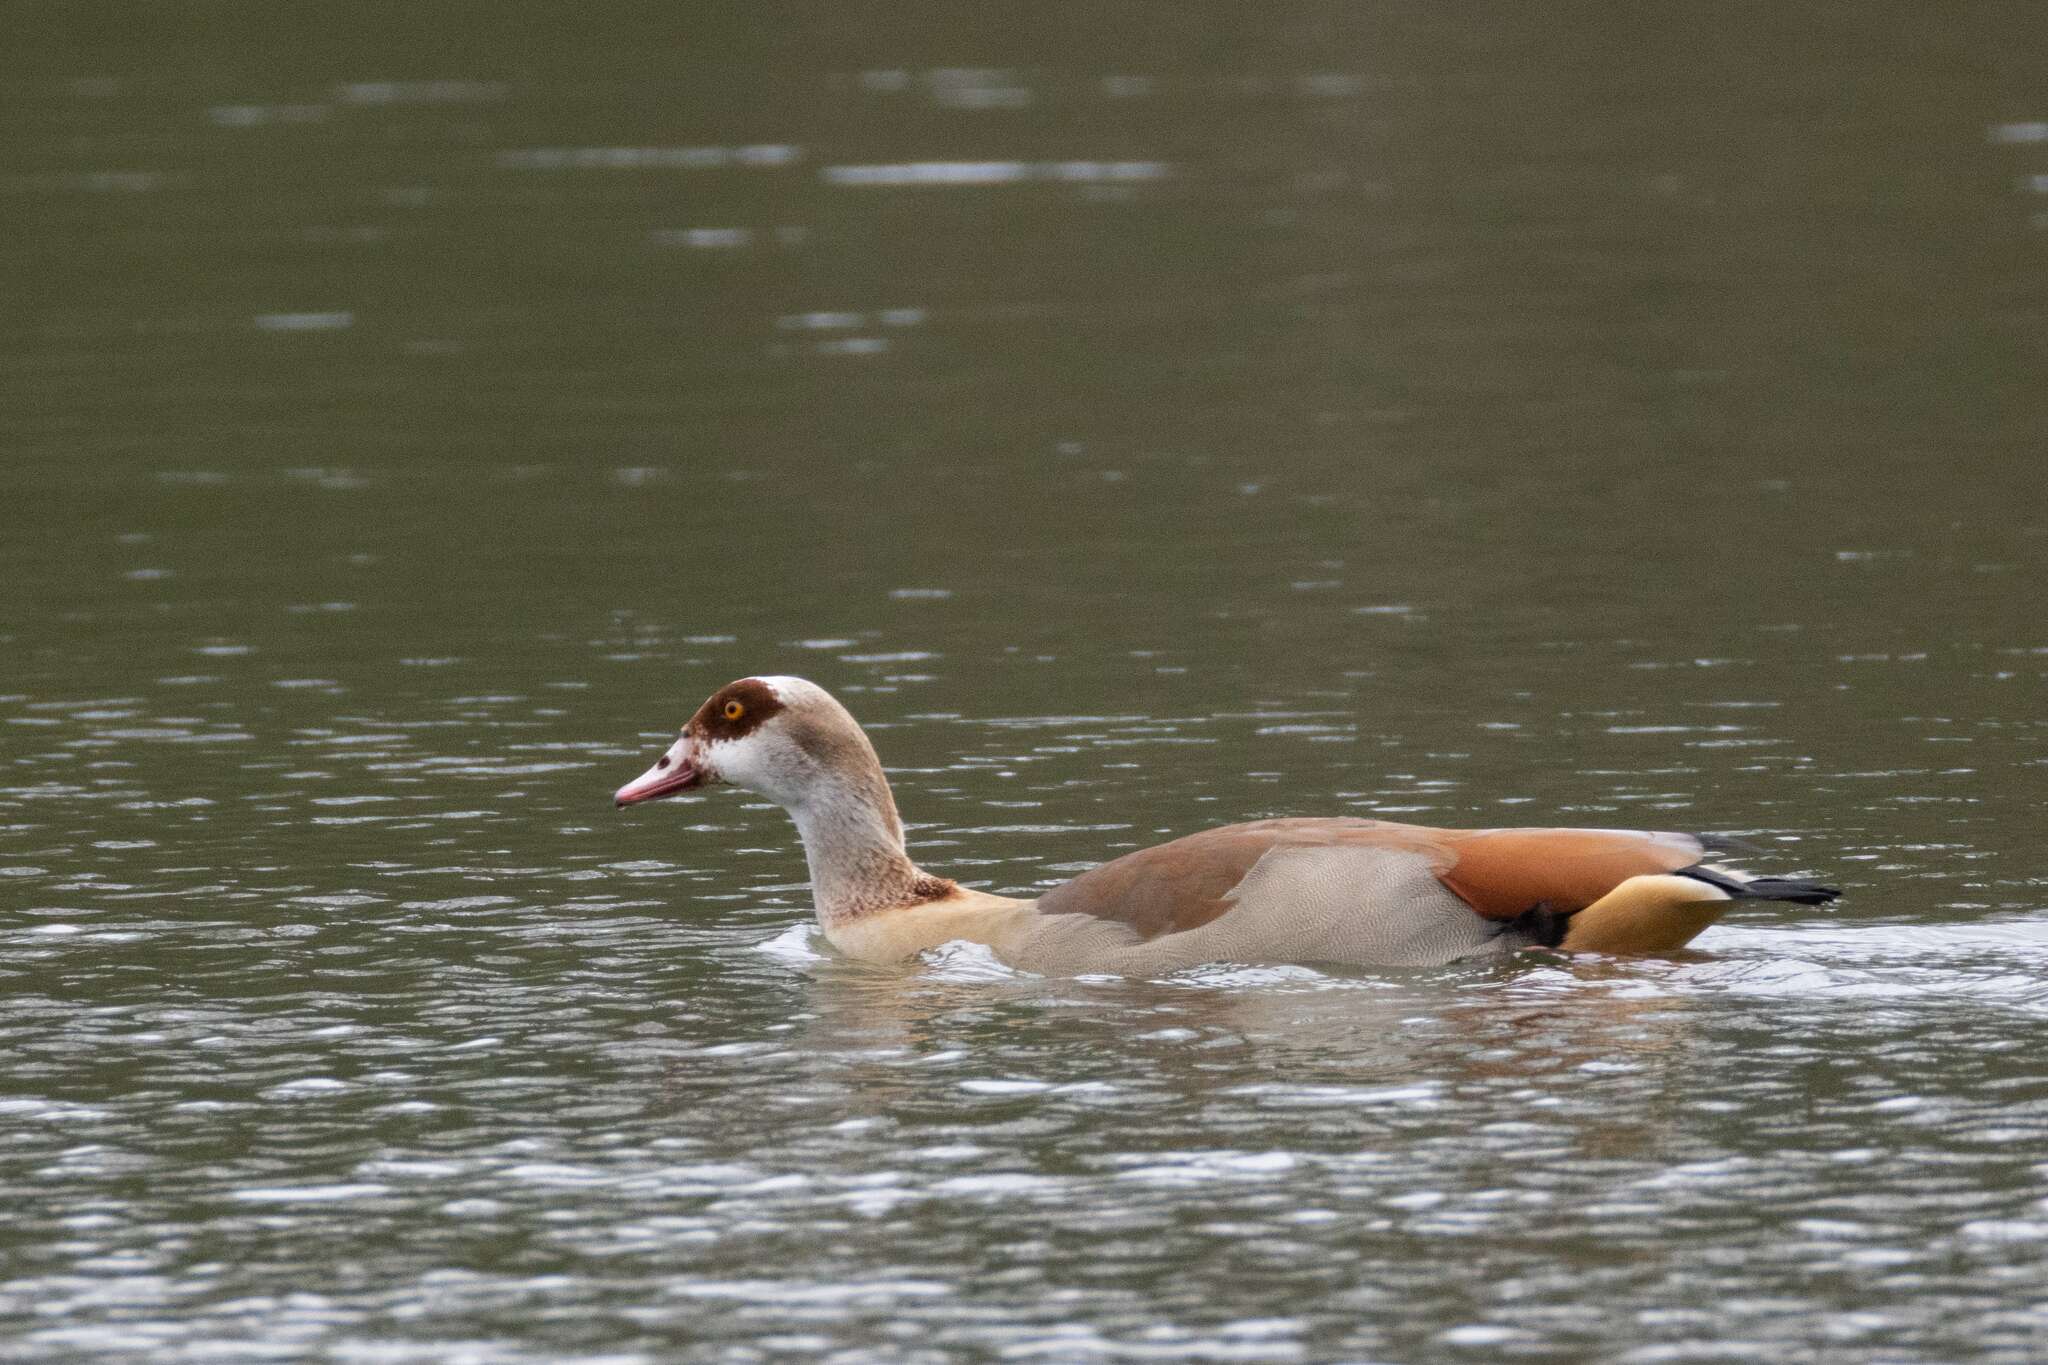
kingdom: Animalia
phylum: Chordata
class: Aves
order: Anseriformes
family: Anatidae
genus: Alopochen
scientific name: Alopochen aegyptiaca
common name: Egyptian goose
